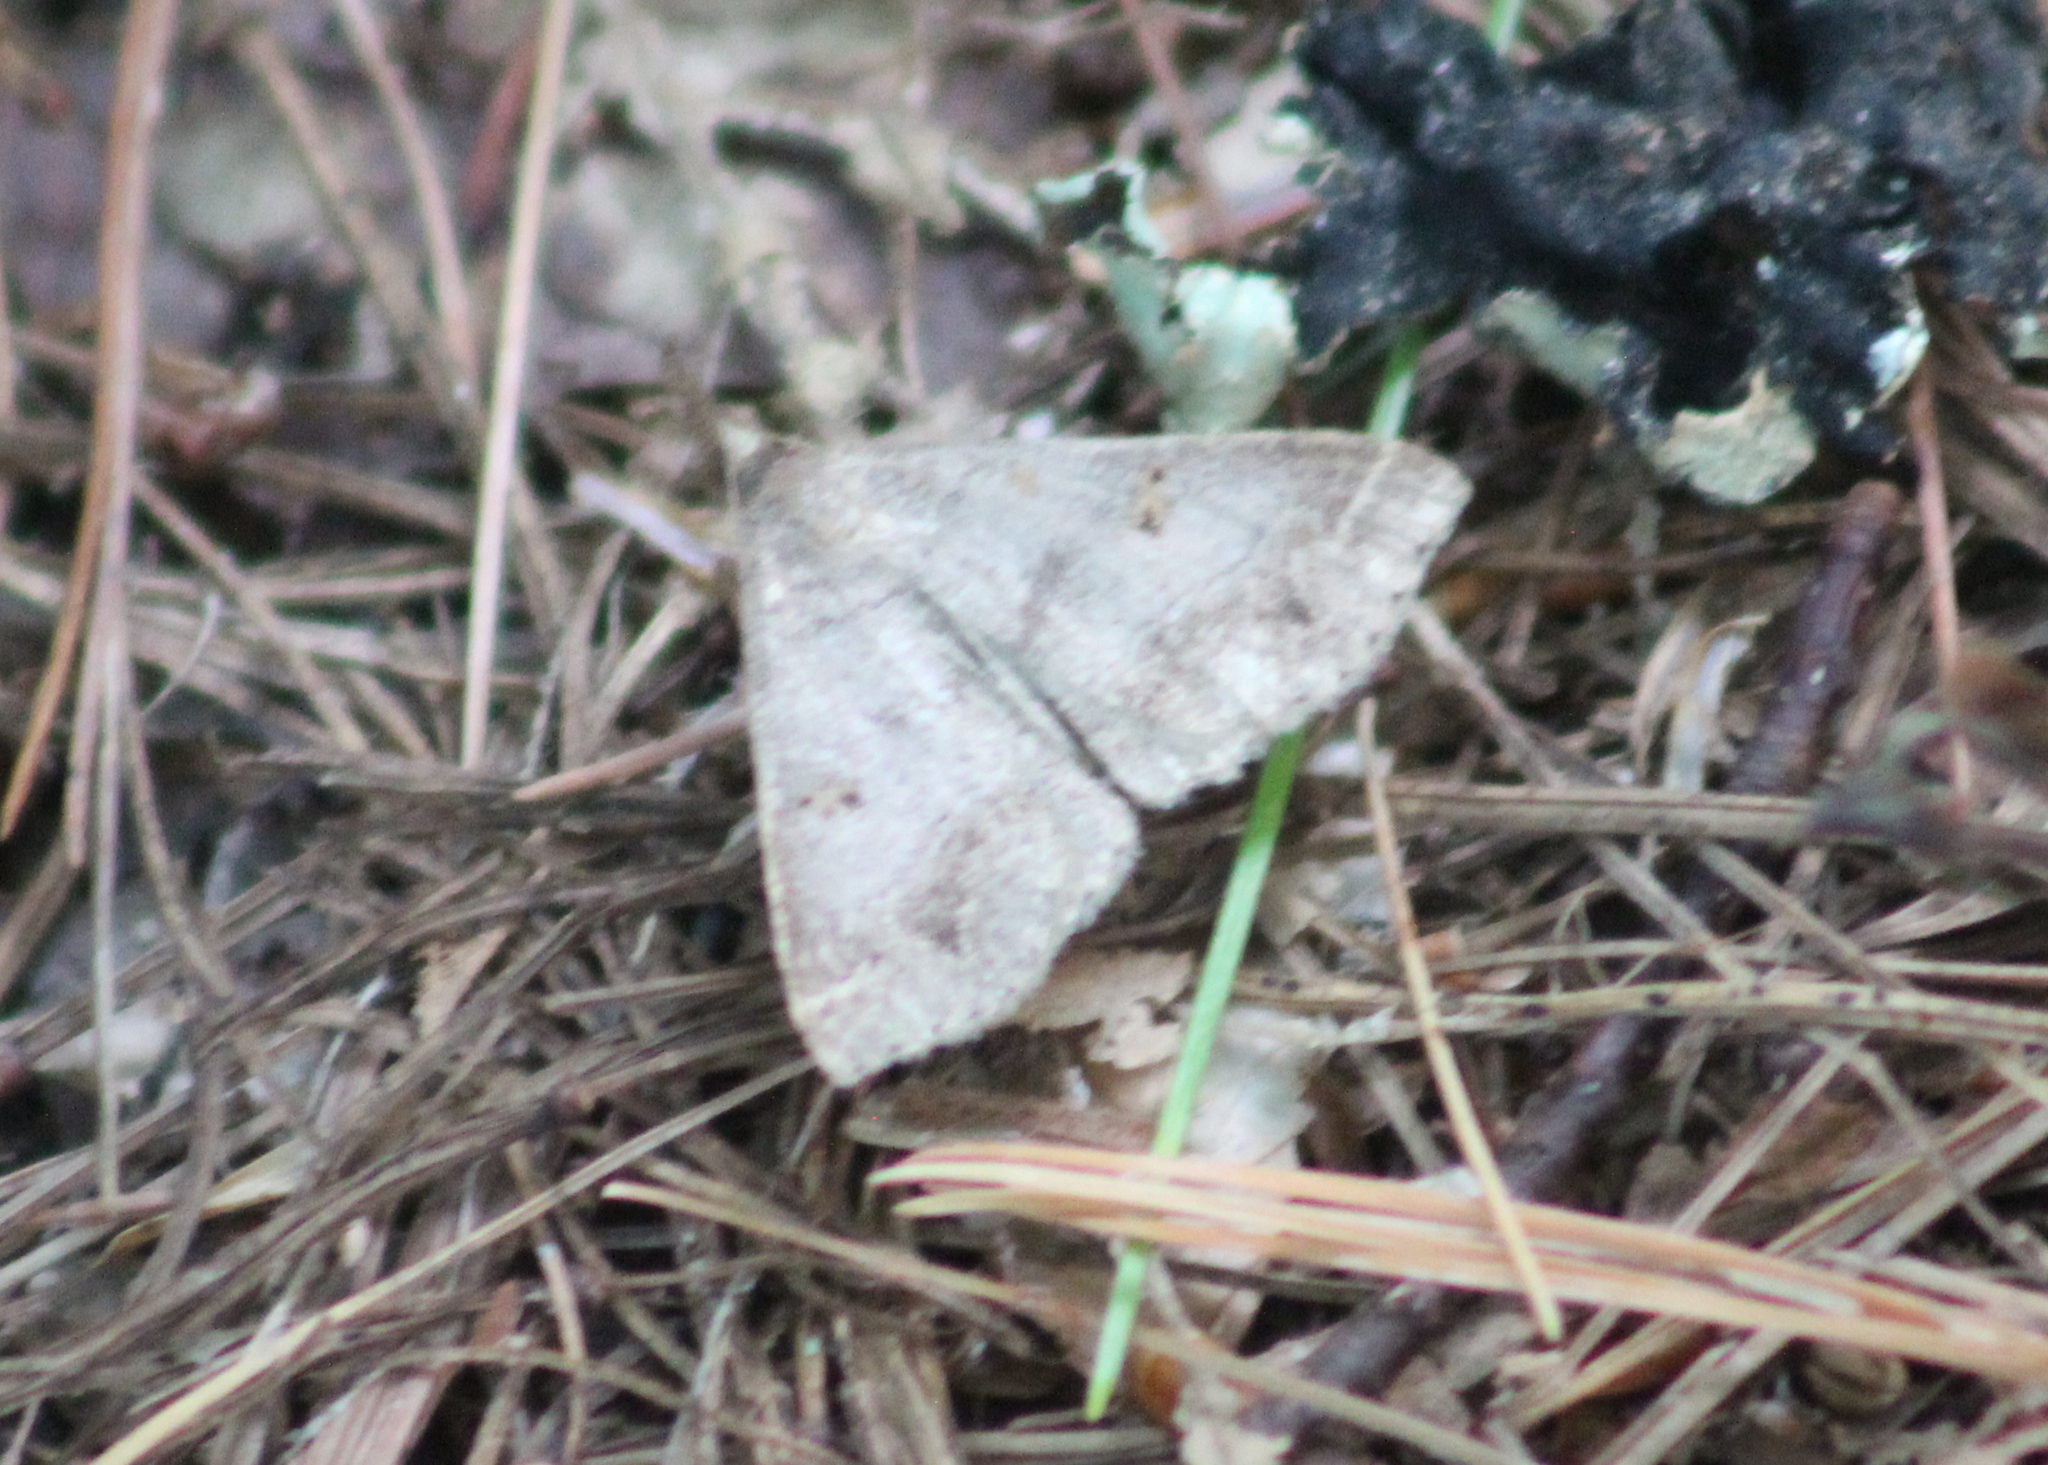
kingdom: Animalia
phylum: Arthropoda
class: Insecta
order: Lepidoptera
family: Erebidae
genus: Renia
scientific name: Renia flavipunctalis
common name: Yellow-spotted renia moth
